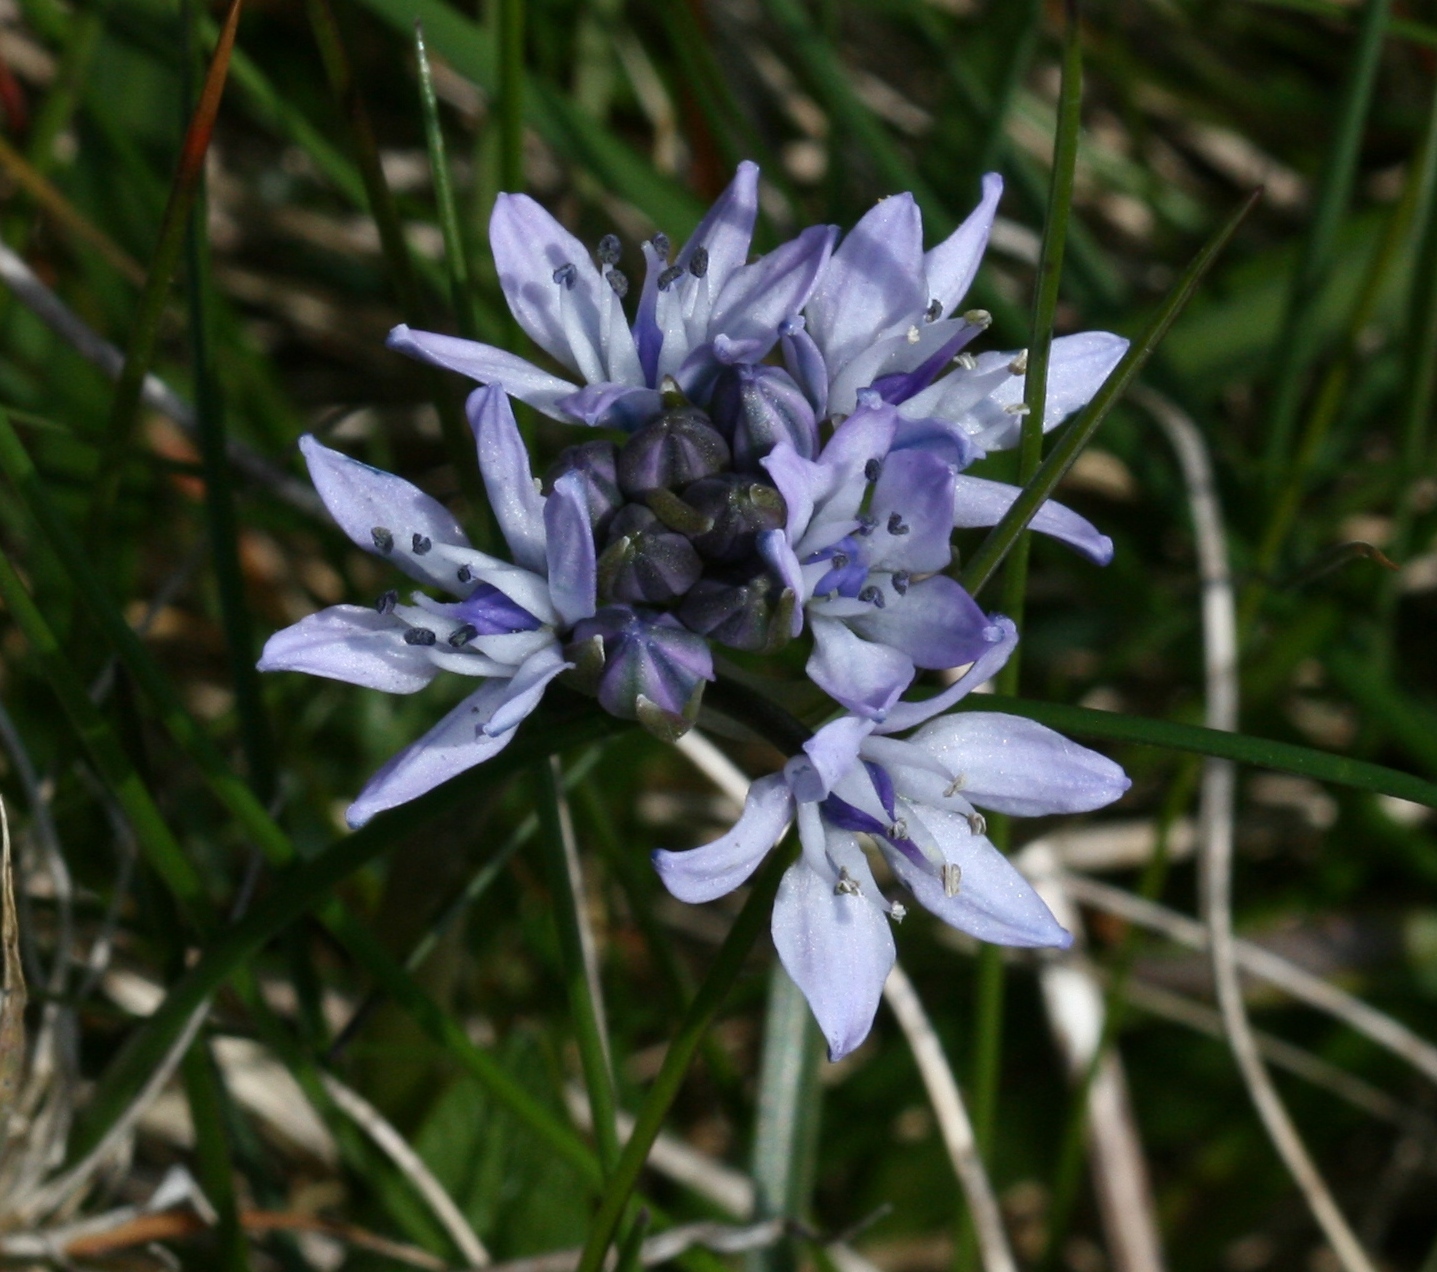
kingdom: Plantae
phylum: Tracheophyta
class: Liliopsida
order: Asparagales
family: Asparagaceae
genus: Scilla
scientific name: Scilla verna
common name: Spring squill
